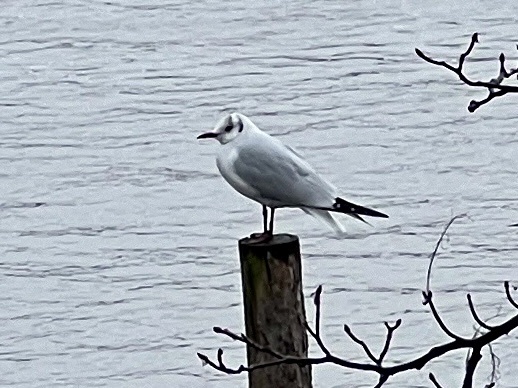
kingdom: Animalia
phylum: Chordata
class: Aves
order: Charadriiformes
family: Laridae
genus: Chroicocephalus
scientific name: Chroicocephalus ridibundus
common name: Black-headed gull
